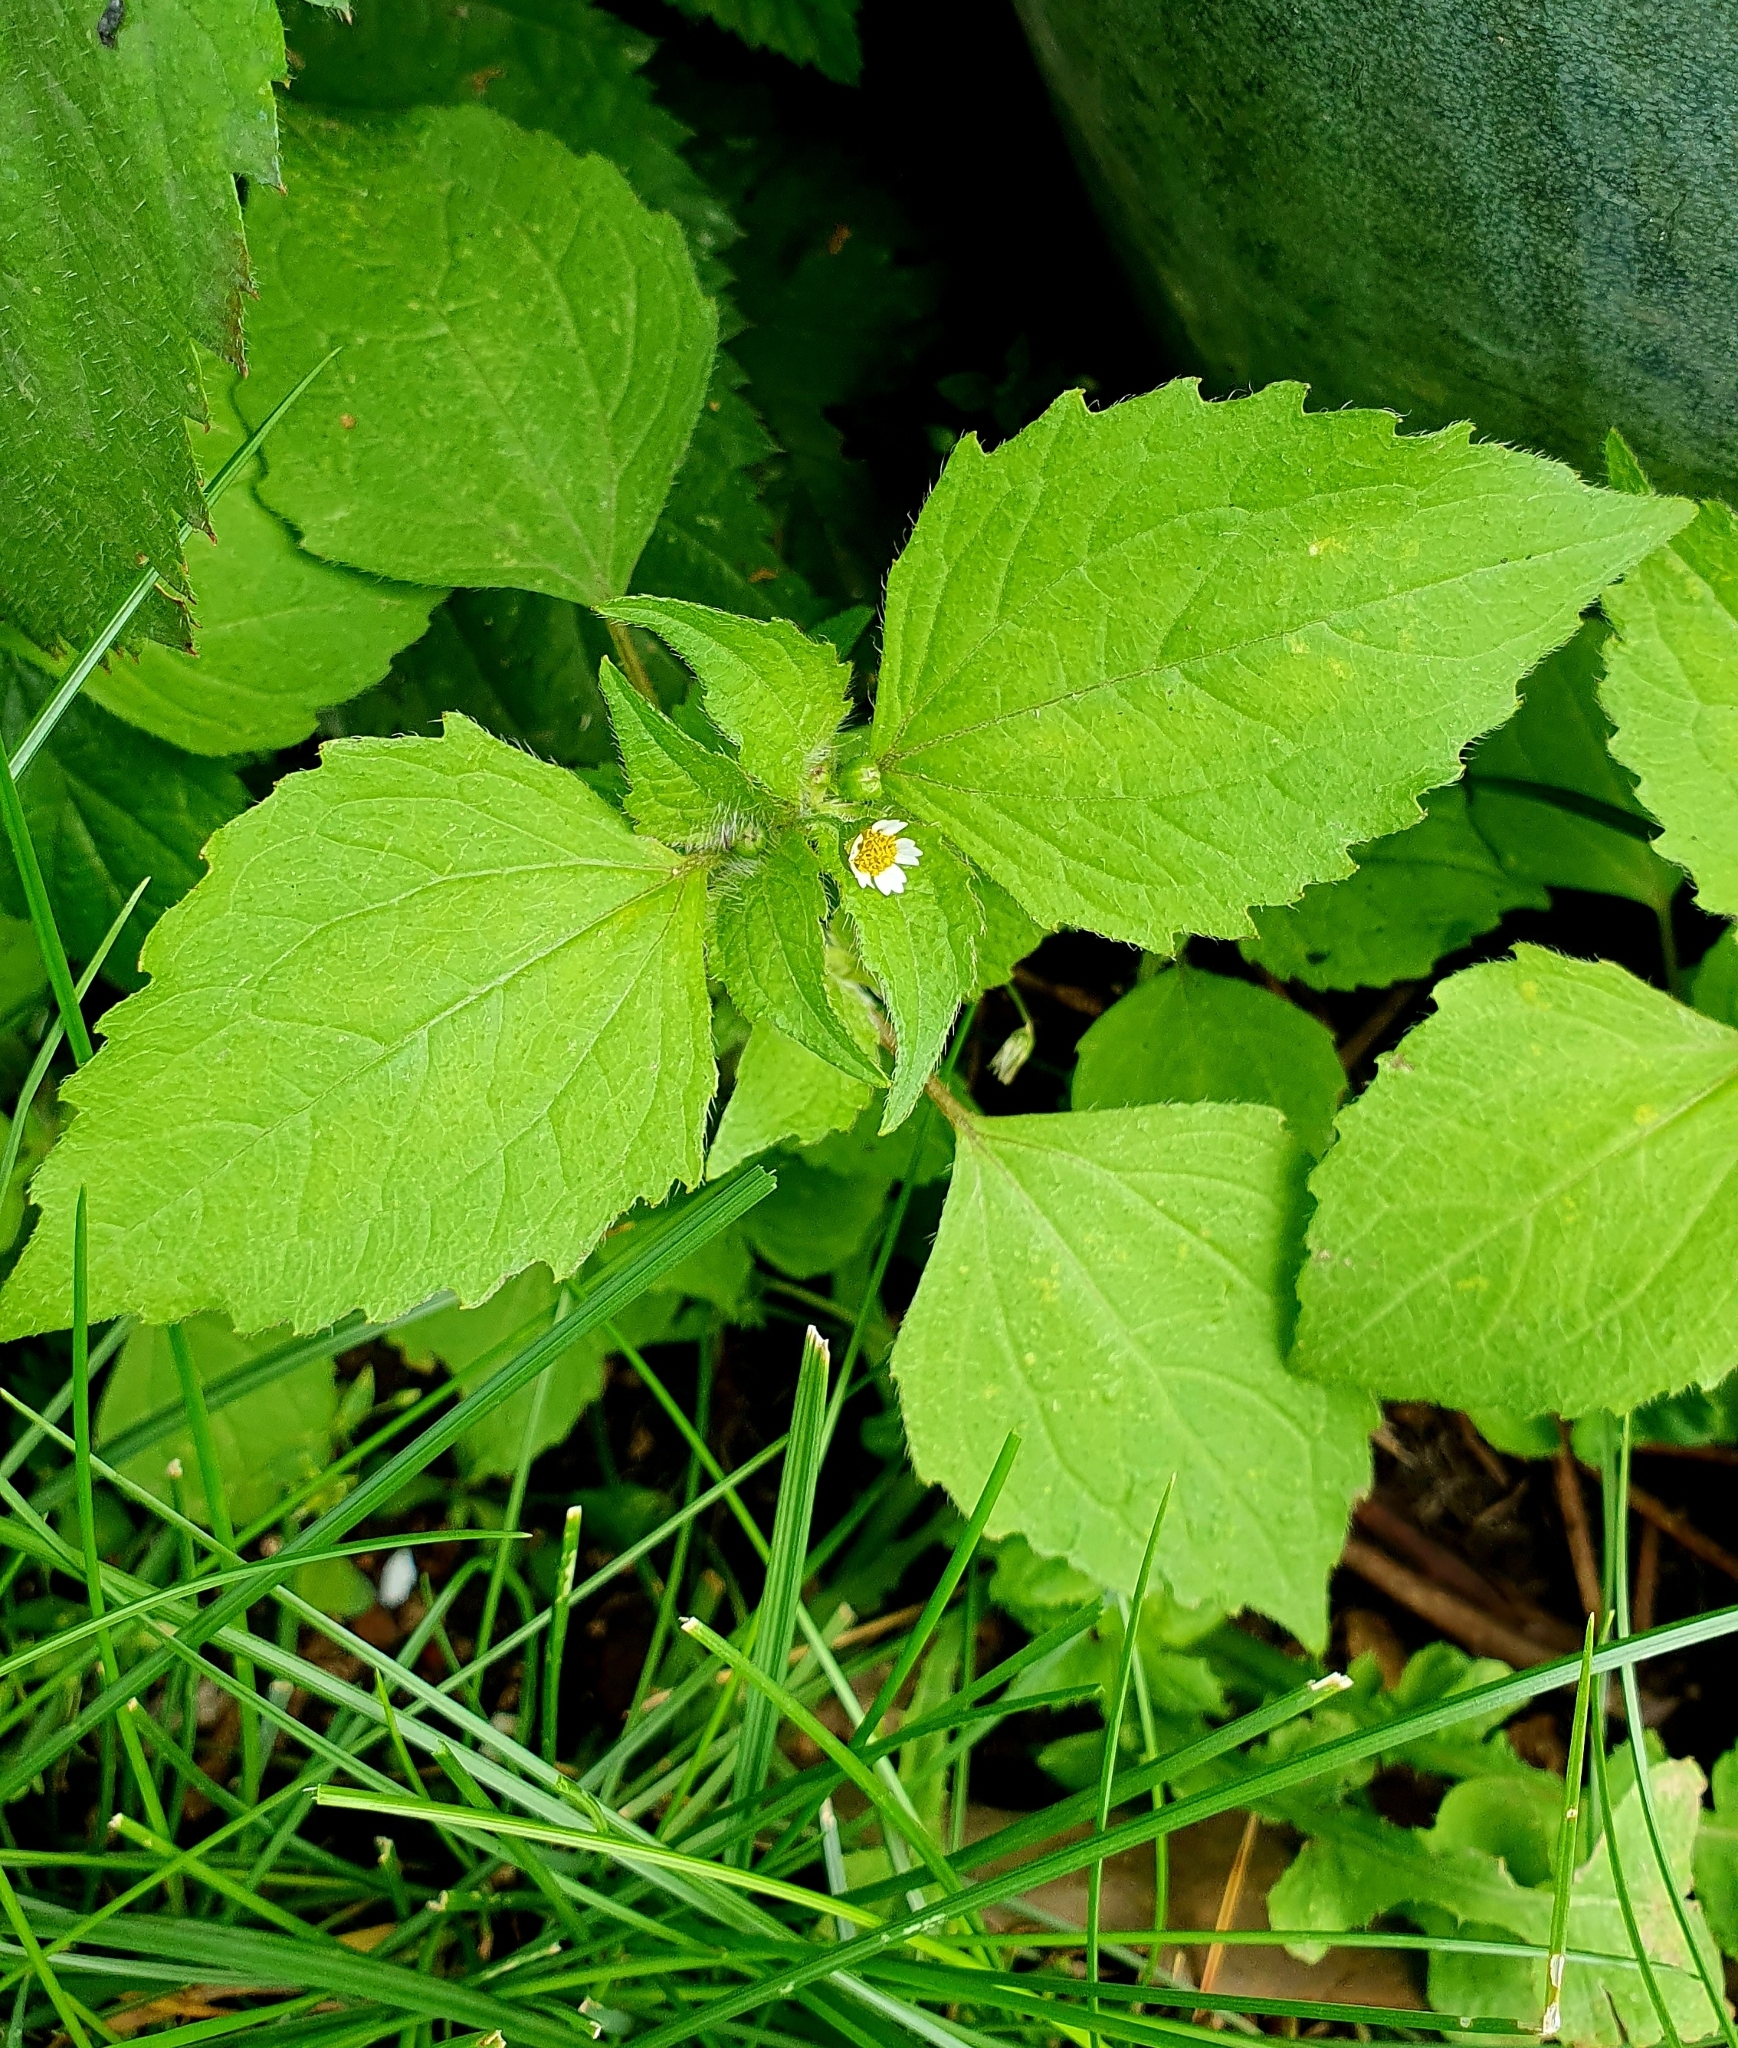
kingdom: Plantae
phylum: Tracheophyta
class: Magnoliopsida
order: Asterales
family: Asteraceae
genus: Galinsoga
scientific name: Galinsoga quadriradiata
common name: Shaggy soldier
